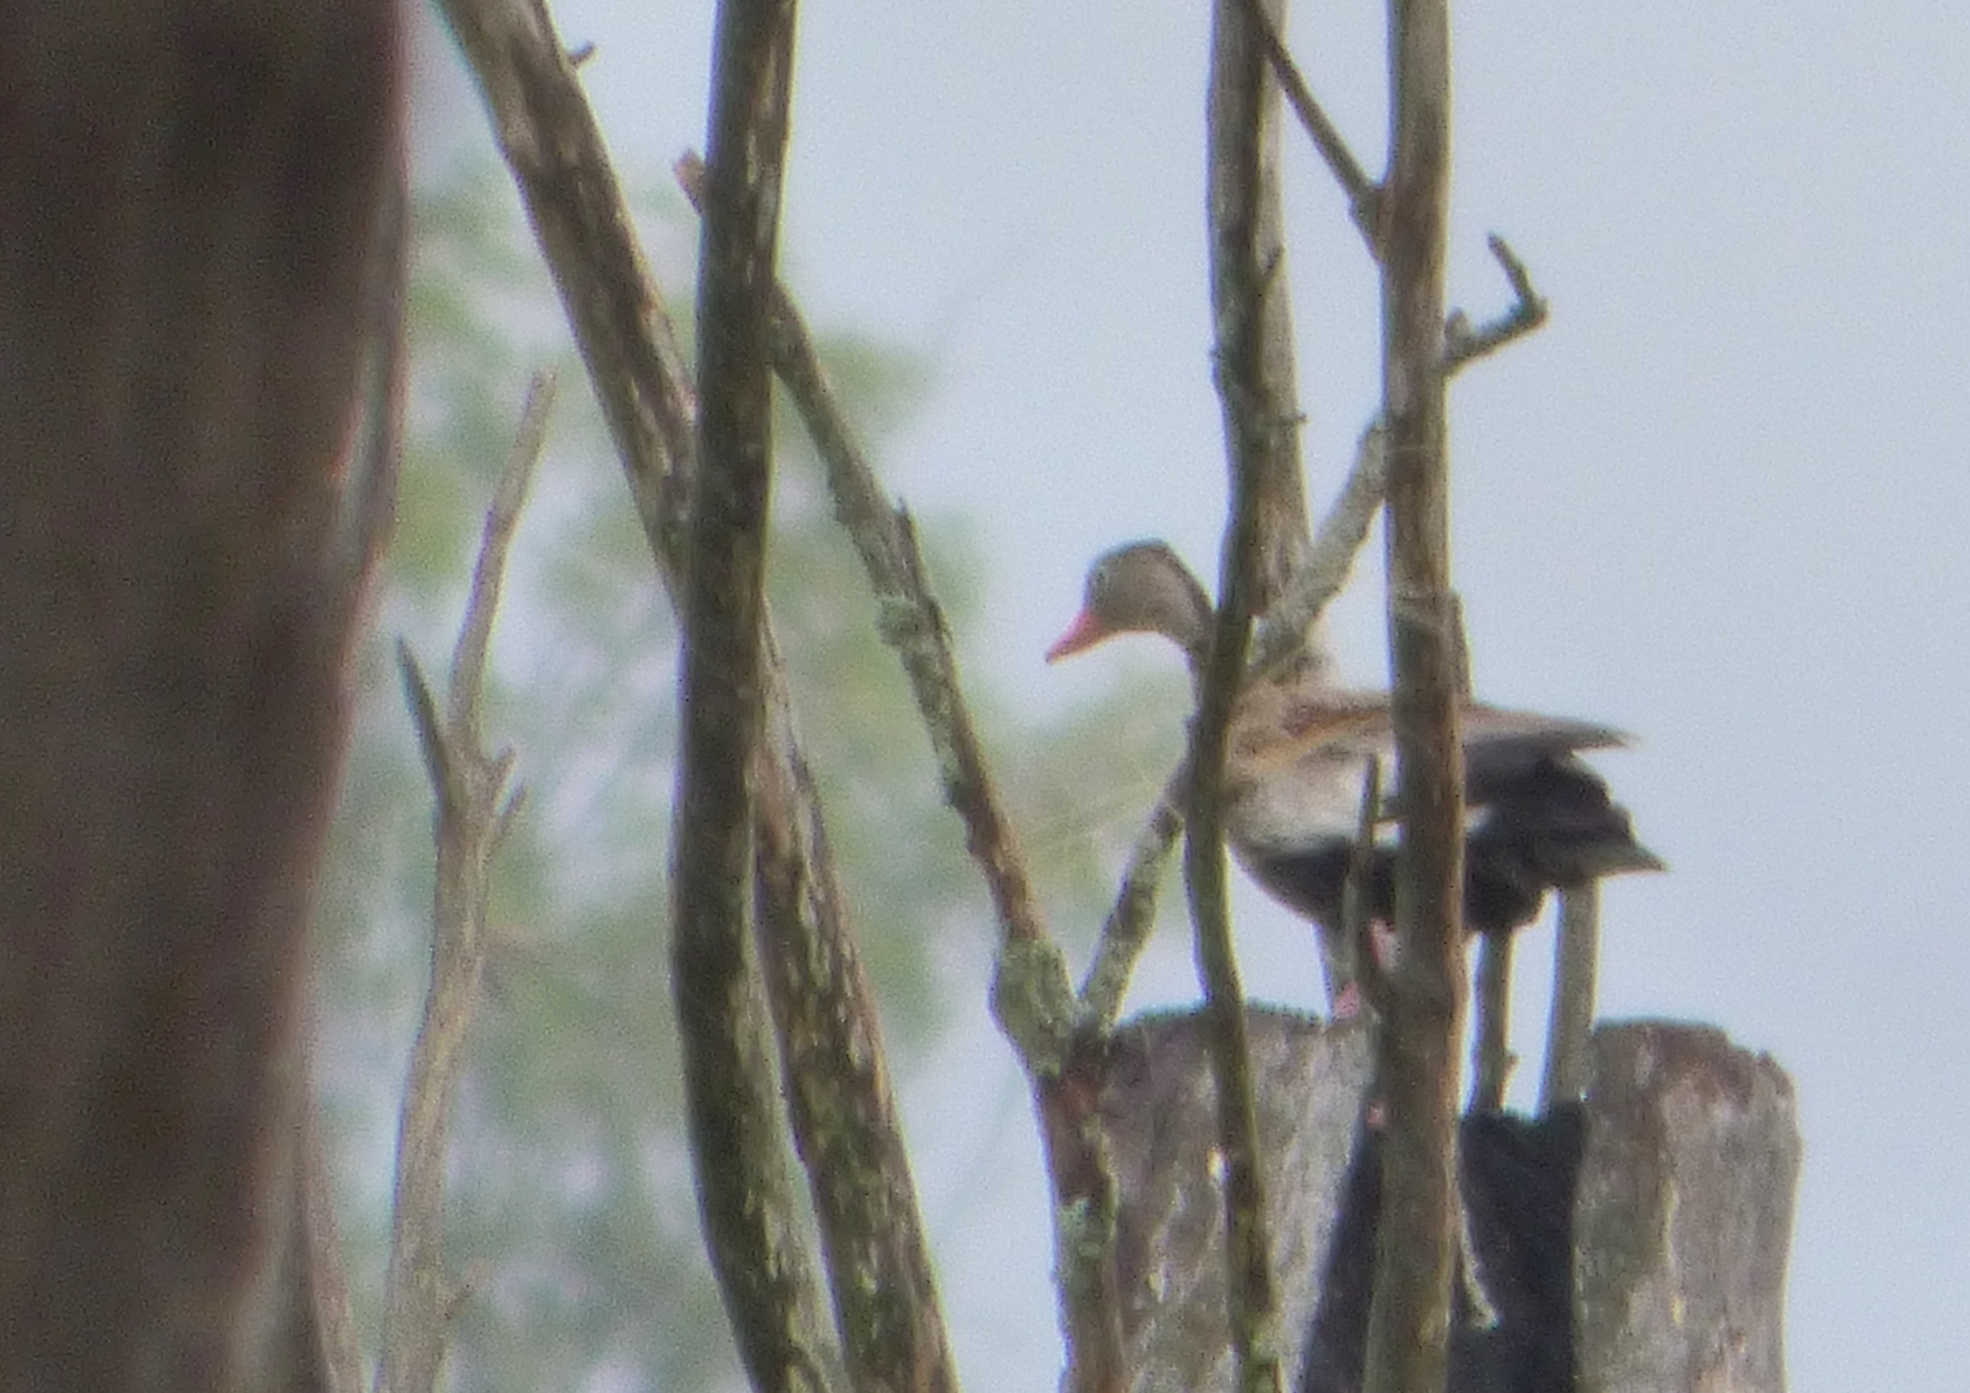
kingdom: Animalia
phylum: Chordata
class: Aves
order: Anseriformes
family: Anatidae
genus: Dendrocygna
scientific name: Dendrocygna autumnalis
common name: Black-bellied whistling duck
